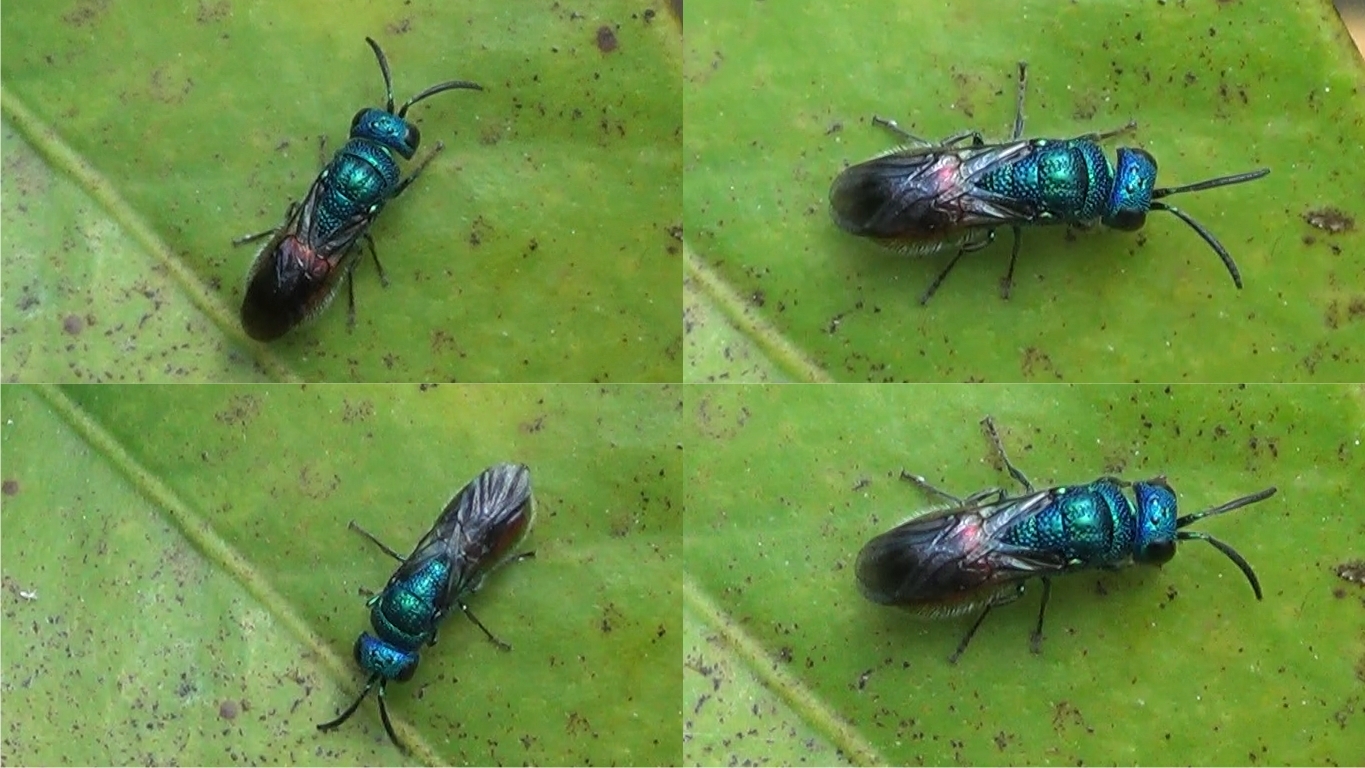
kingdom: Animalia
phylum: Arthropoda
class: Insecta
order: Hymenoptera
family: Chrysididae
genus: Philoctetes
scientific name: Philoctetes Chrysellampus spec
